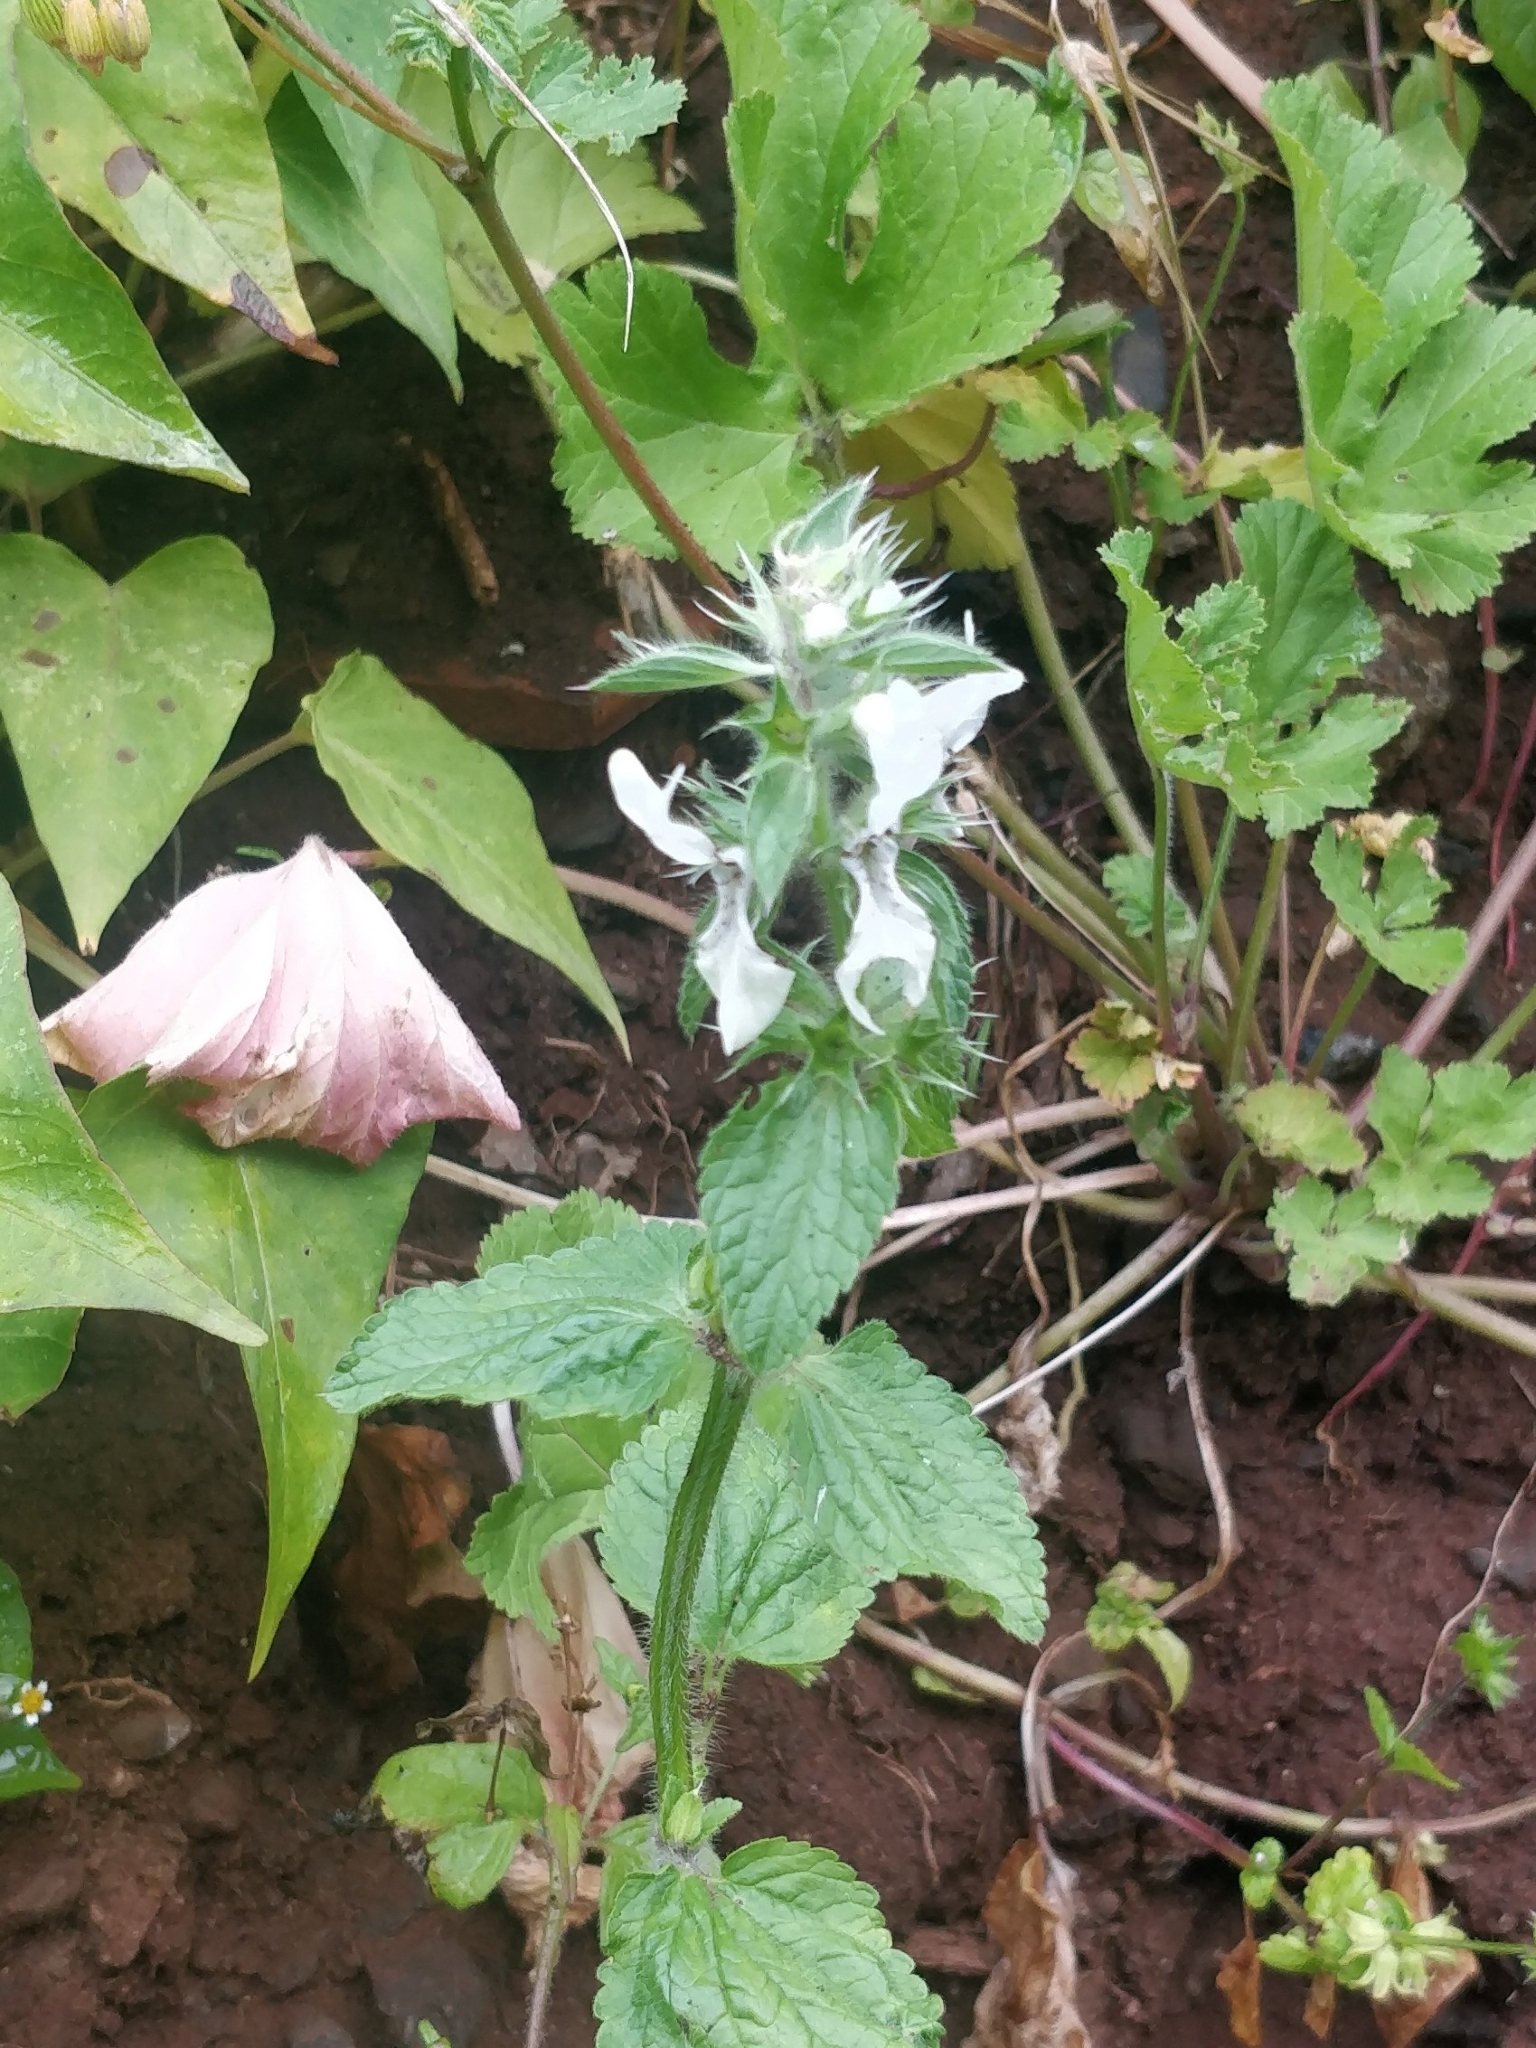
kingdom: Plantae
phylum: Tracheophyta
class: Magnoliopsida
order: Lamiales
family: Lamiaceae
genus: Stachys
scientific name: Stachys ocymastrum
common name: Italian hedgenettle
